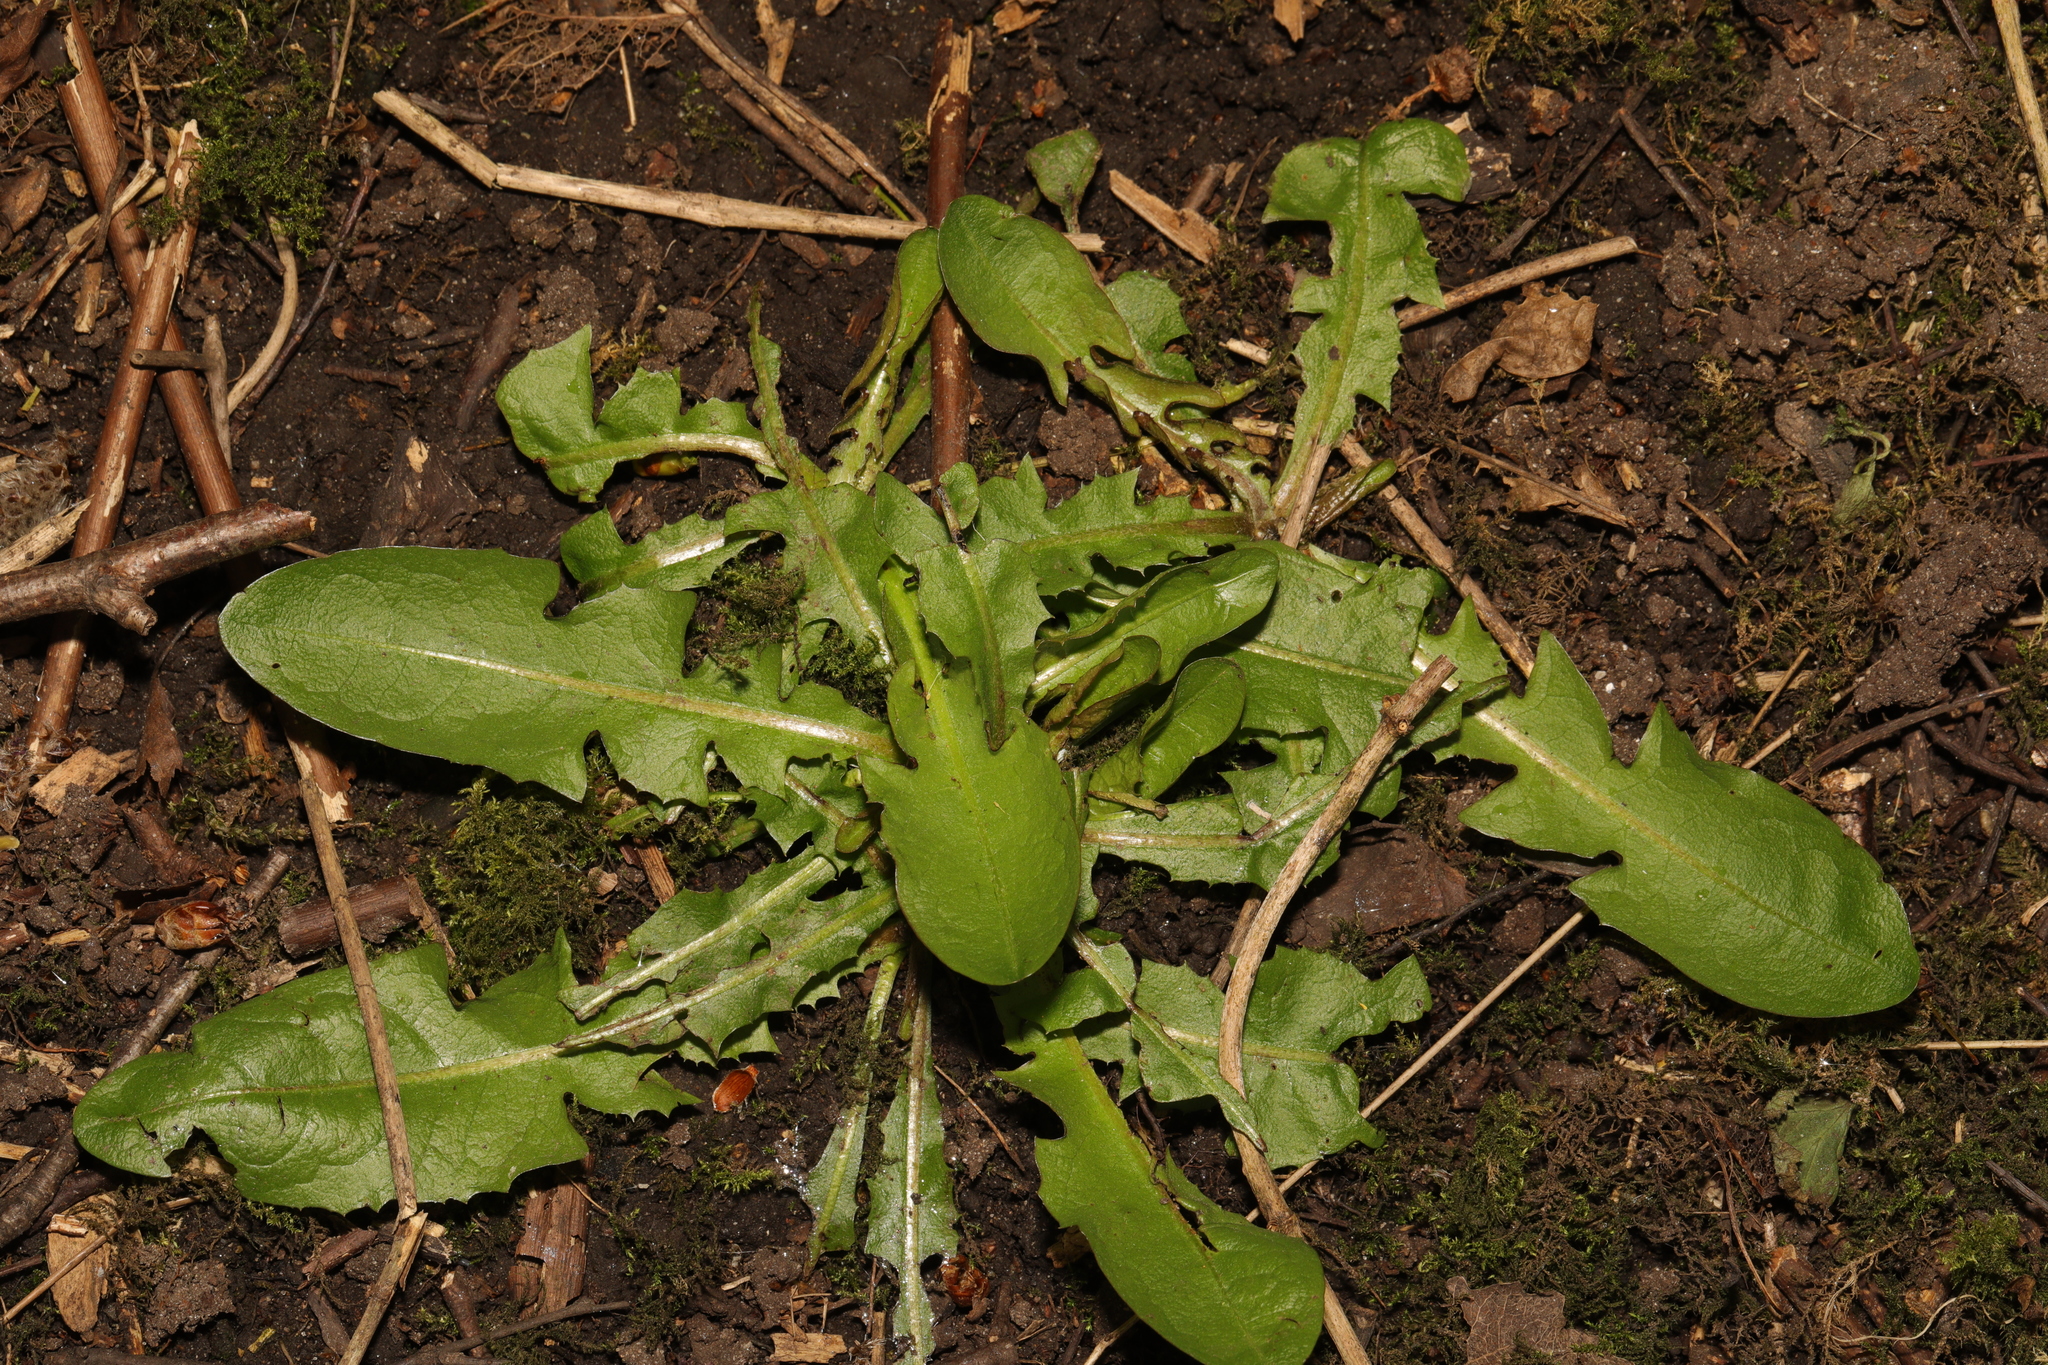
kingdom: Plantae
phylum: Tracheophyta
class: Magnoliopsida
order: Asterales
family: Asteraceae
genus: Taraxacum
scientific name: Taraxacum officinale
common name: Common dandelion
